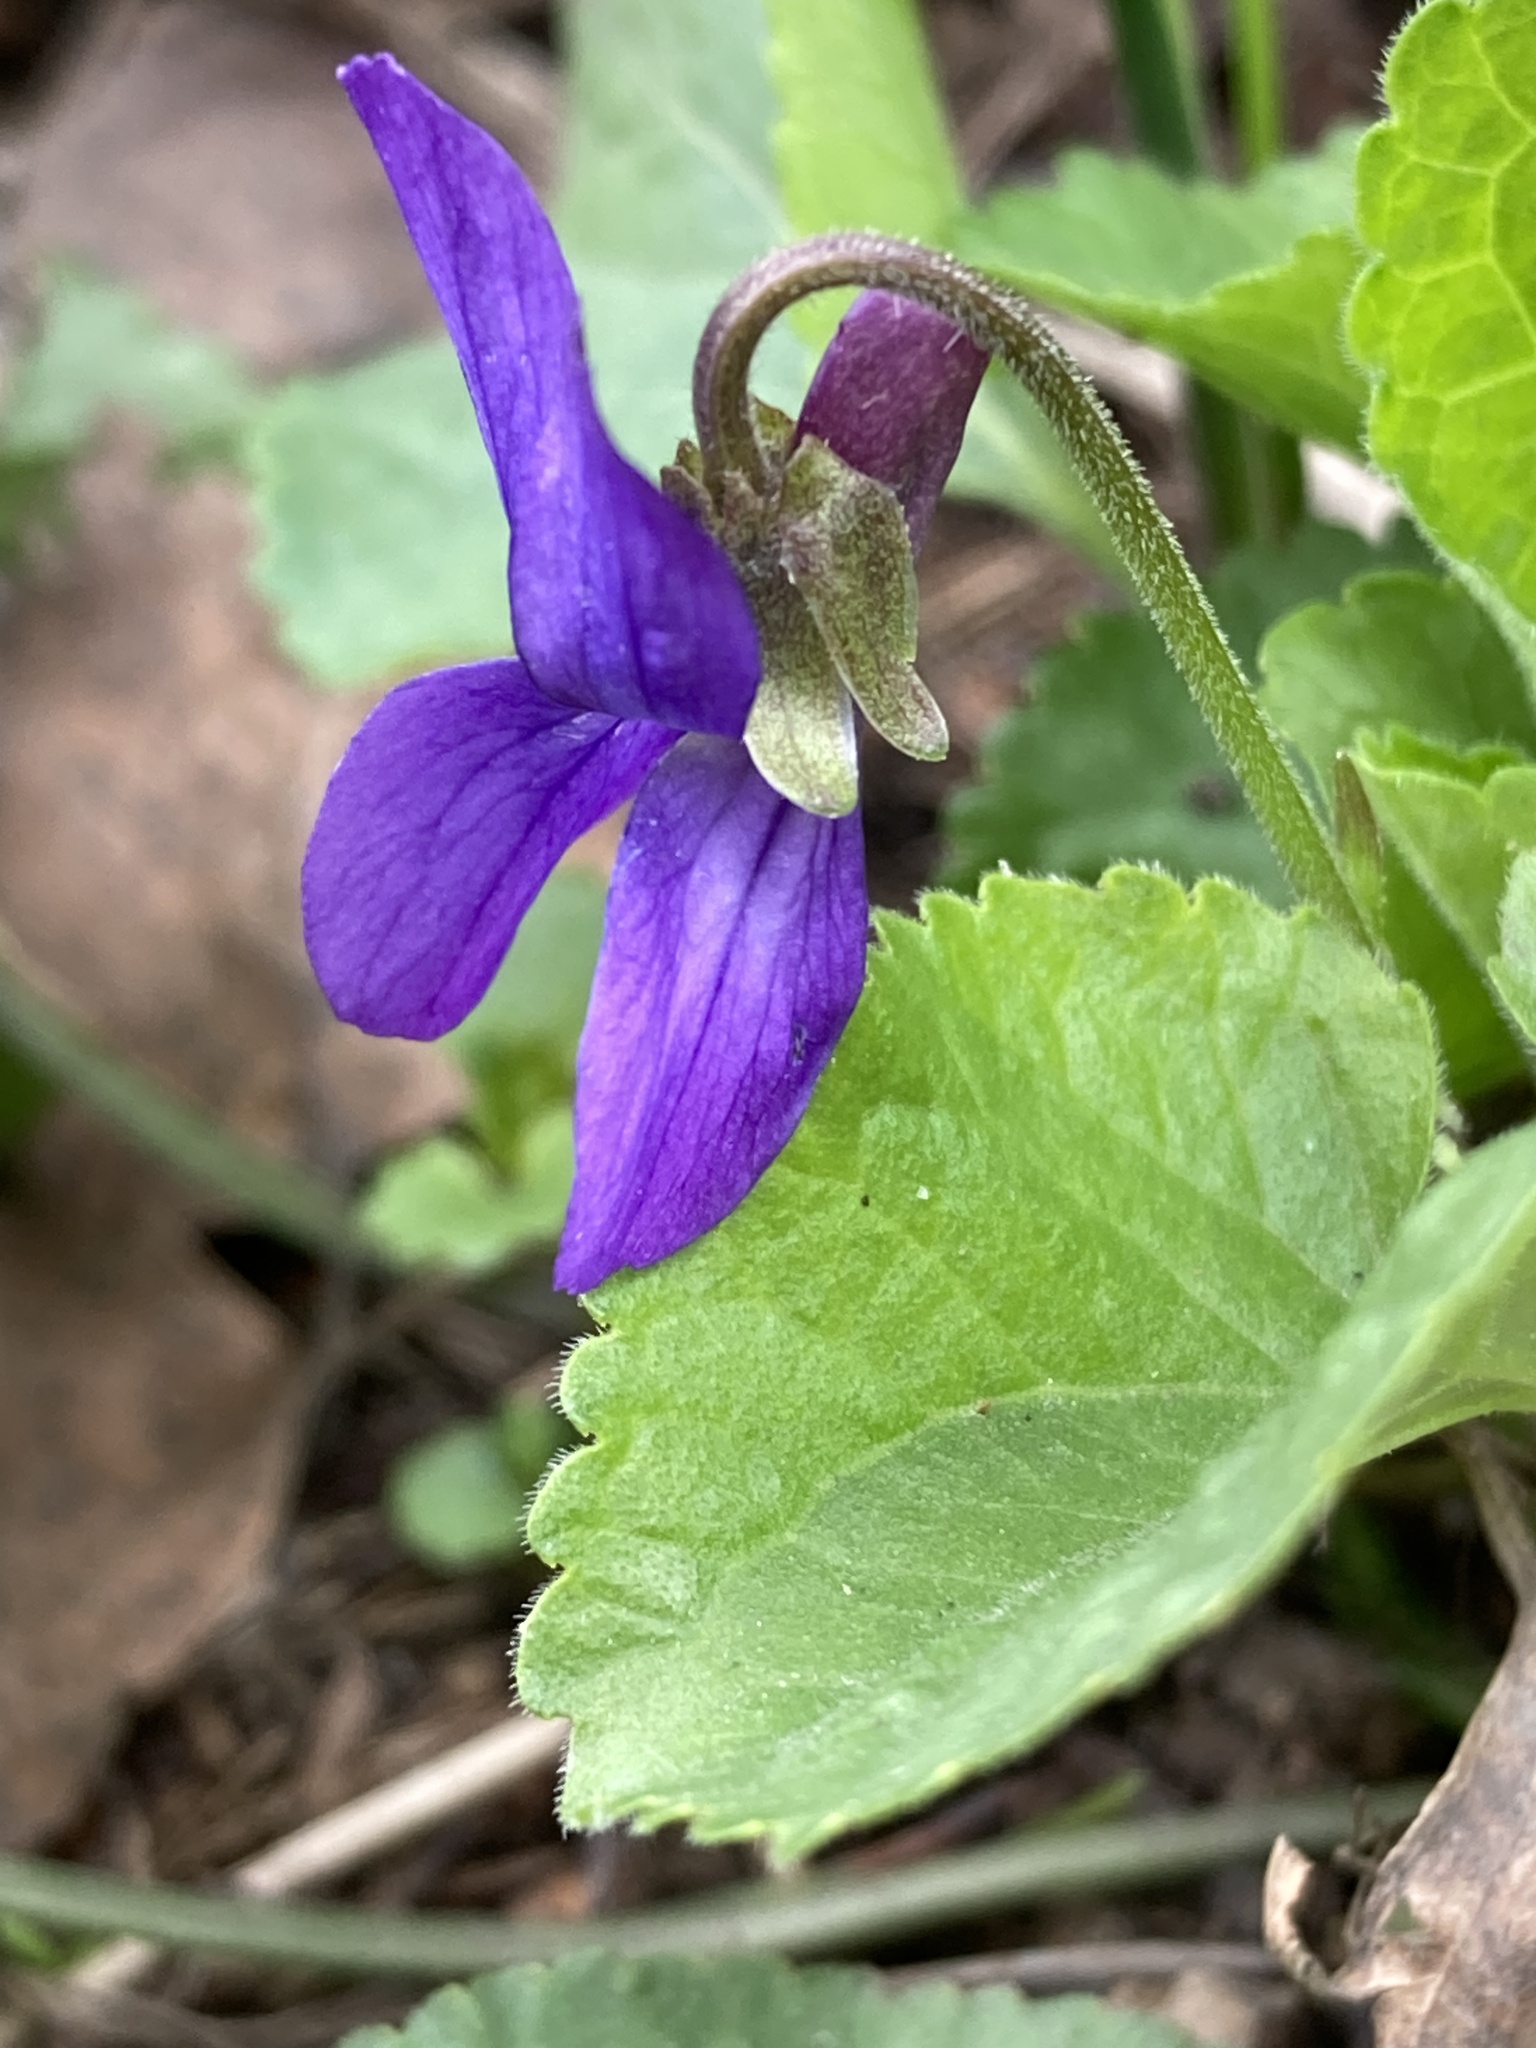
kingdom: Plantae
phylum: Tracheophyta
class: Magnoliopsida
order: Malpighiales
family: Violaceae
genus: Viola
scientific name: Viola odorata
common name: Sweet violet
